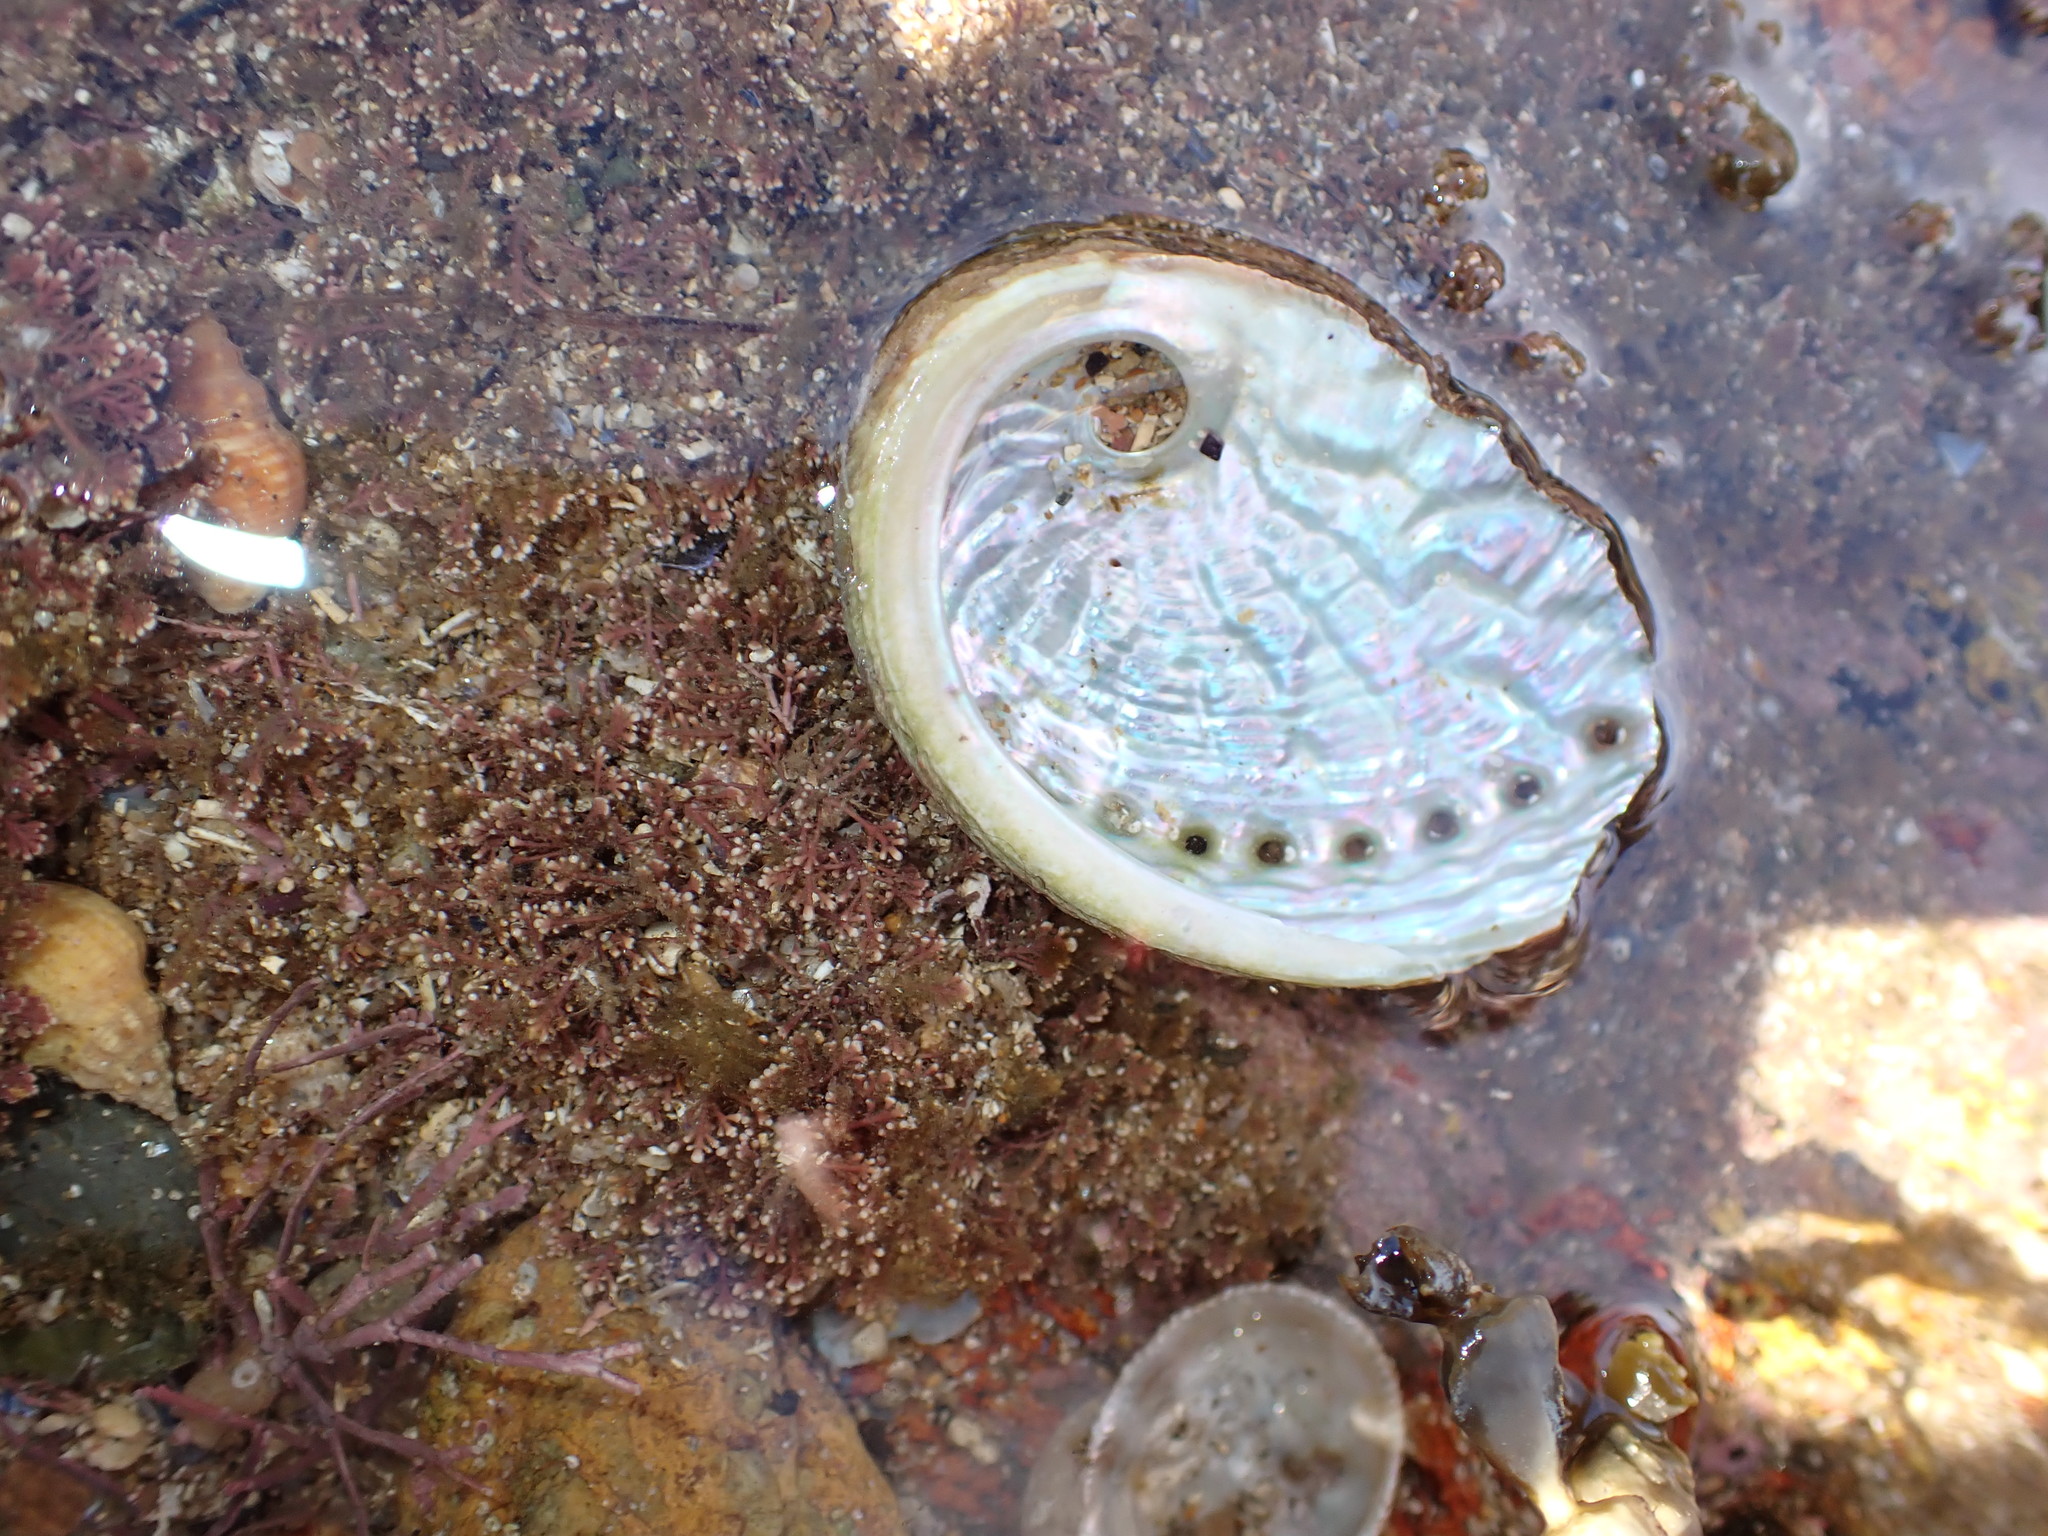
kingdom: Animalia
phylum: Mollusca
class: Gastropoda
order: Lepetellida
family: Haliotidae
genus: Haliotis
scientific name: Haliotis rubra
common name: Blacklip abalone
